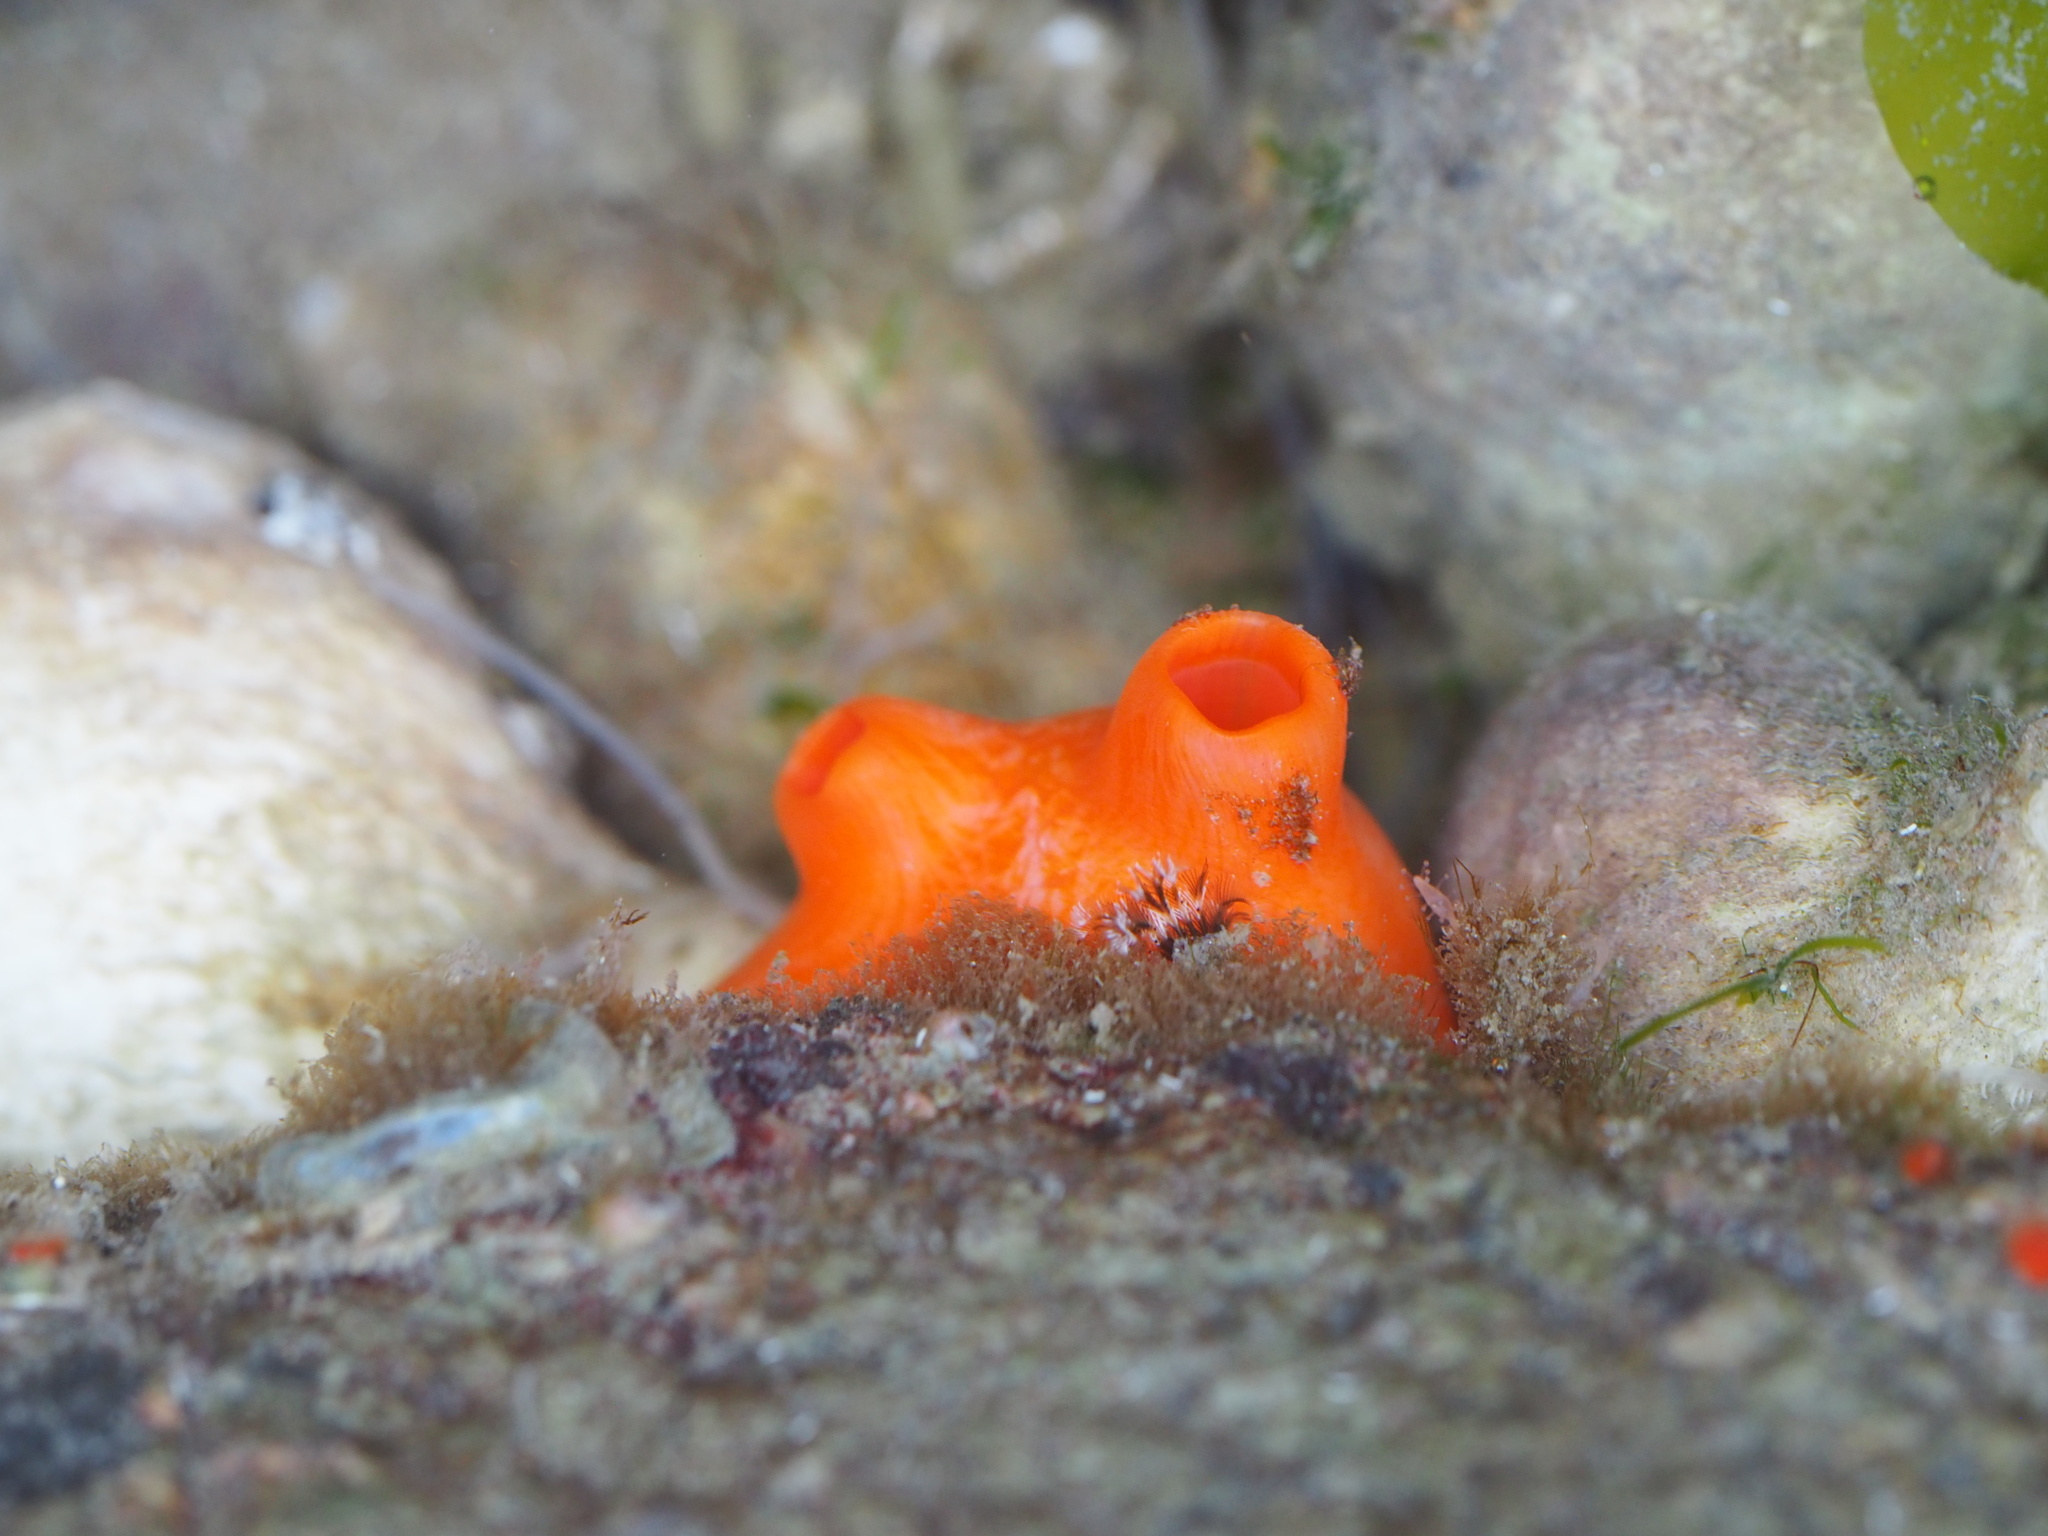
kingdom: Animalia
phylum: Chordata
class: Ascidiacea
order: Stolidobranchia
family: Styelidae
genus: Cnemidocarpa
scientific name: Cnemidocarpa finmarkiensis
